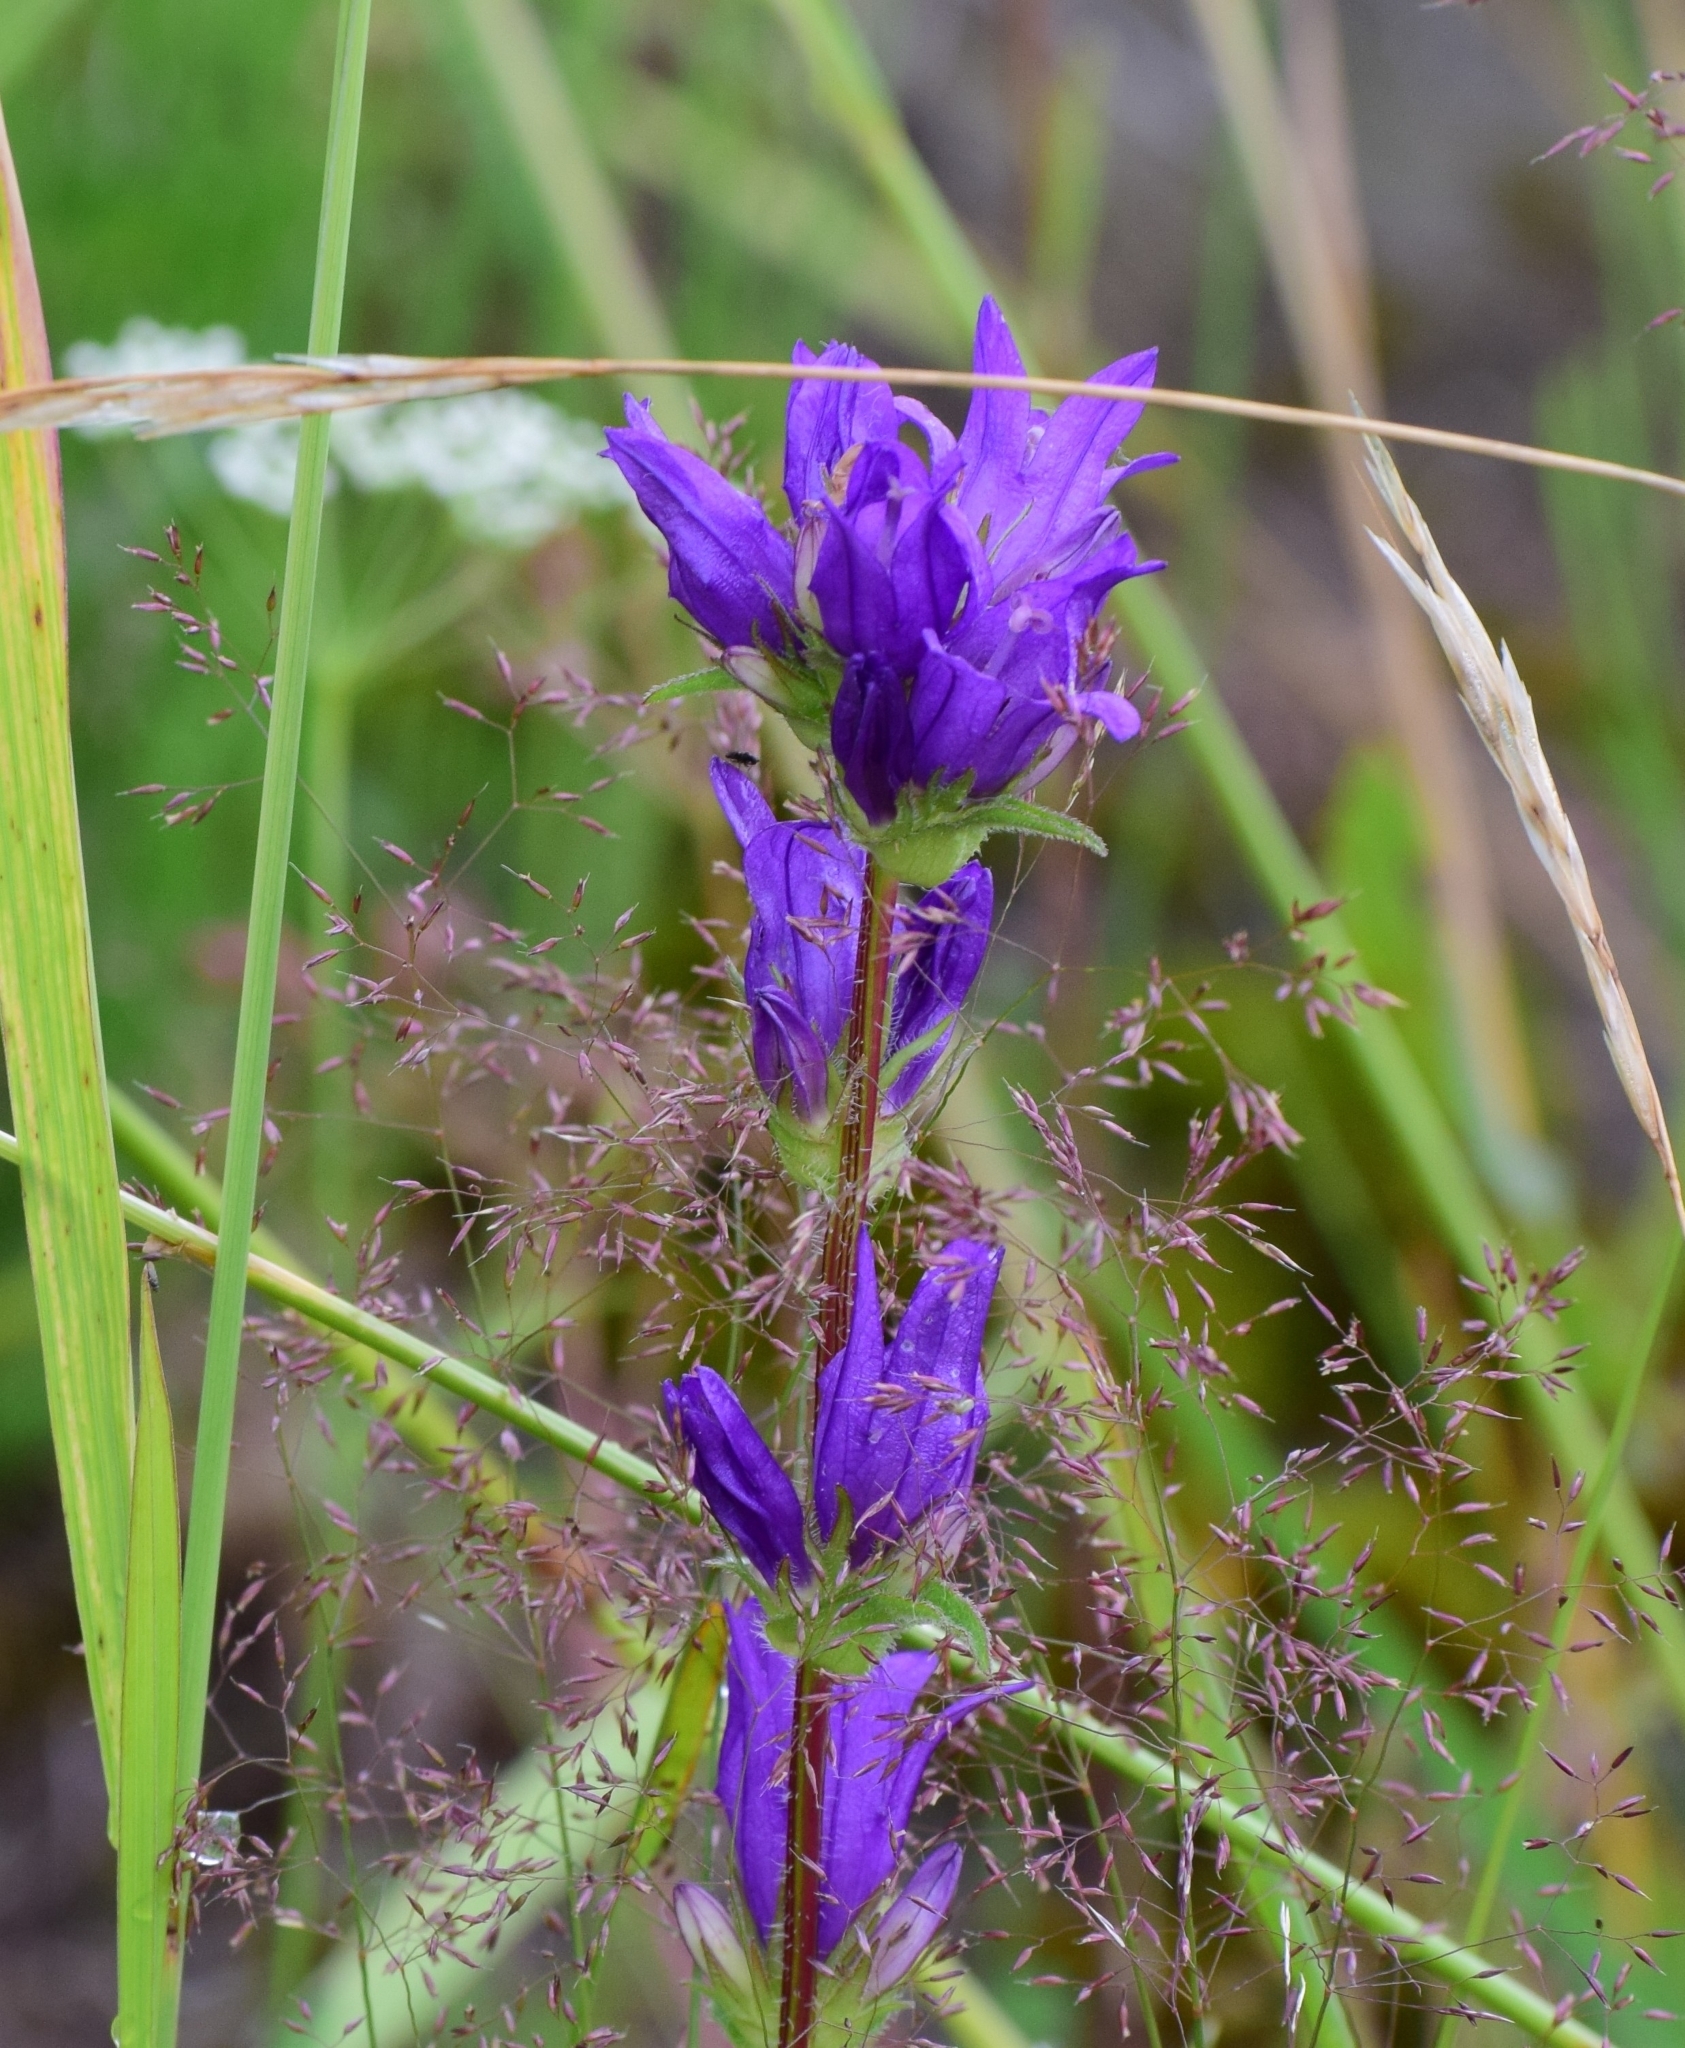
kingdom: Plantae
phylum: Tracheophyta
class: Magnoliopsida
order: Asterales
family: Campanulaceae
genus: Campanula
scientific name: Campanula glomerata
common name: Clustered bellflower
